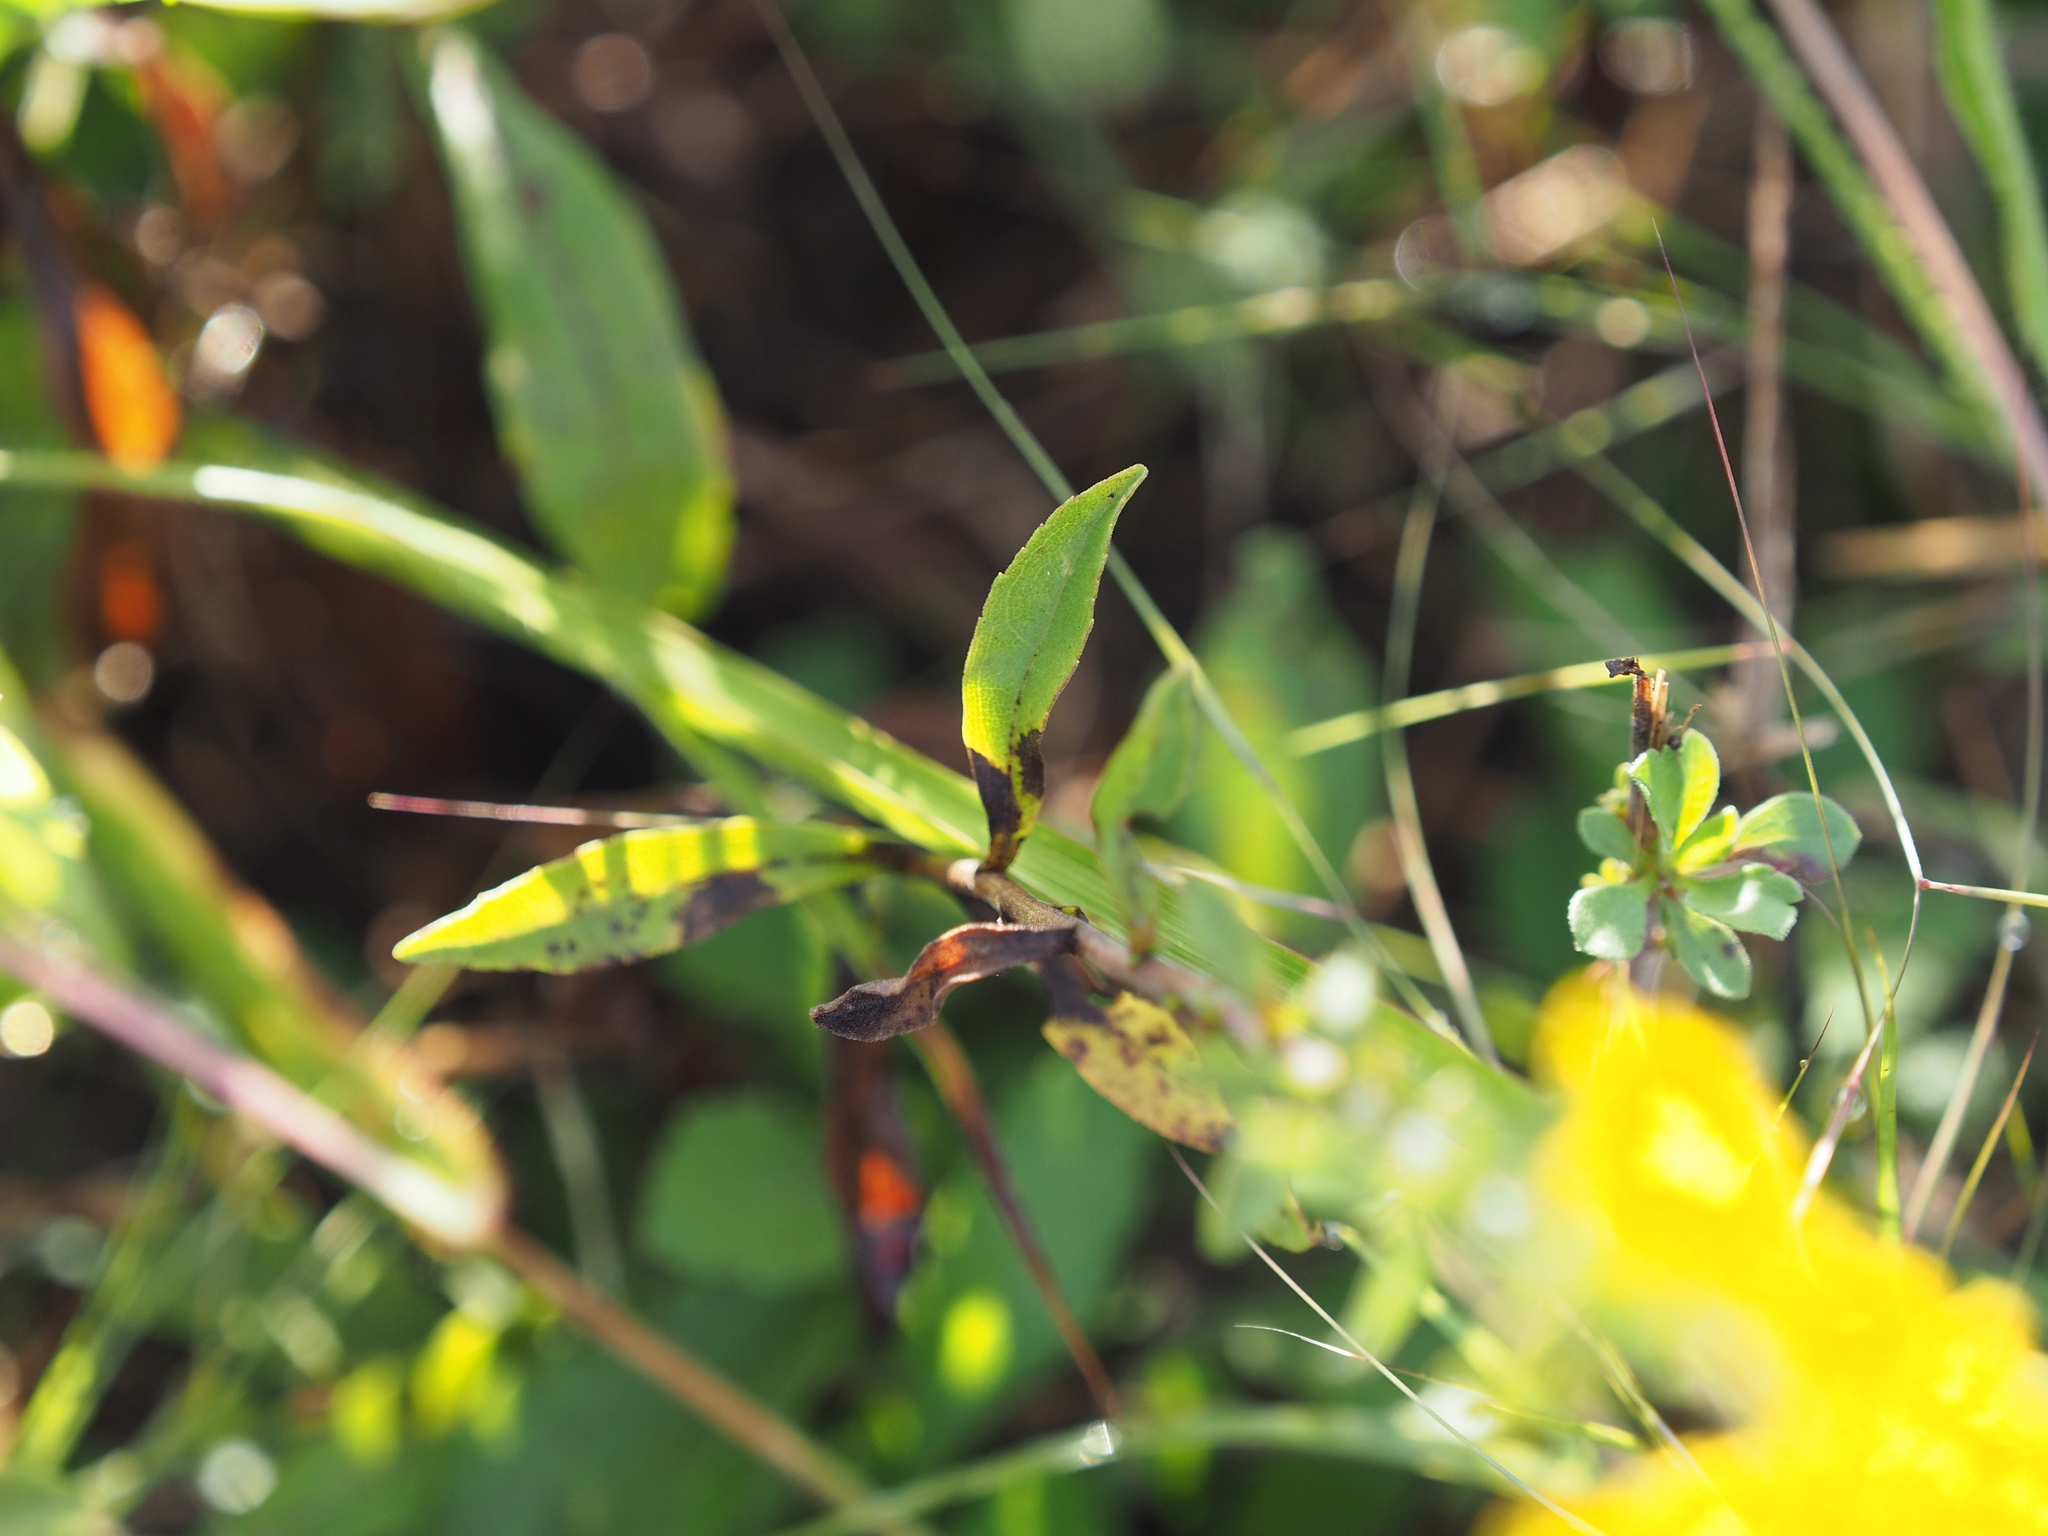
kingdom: Plantae
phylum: Tracheophyta
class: Magnoliopsida
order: Asterales
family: Asteraceae
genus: Solidago
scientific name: Solidago nemoralis
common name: Grey goldenrod
